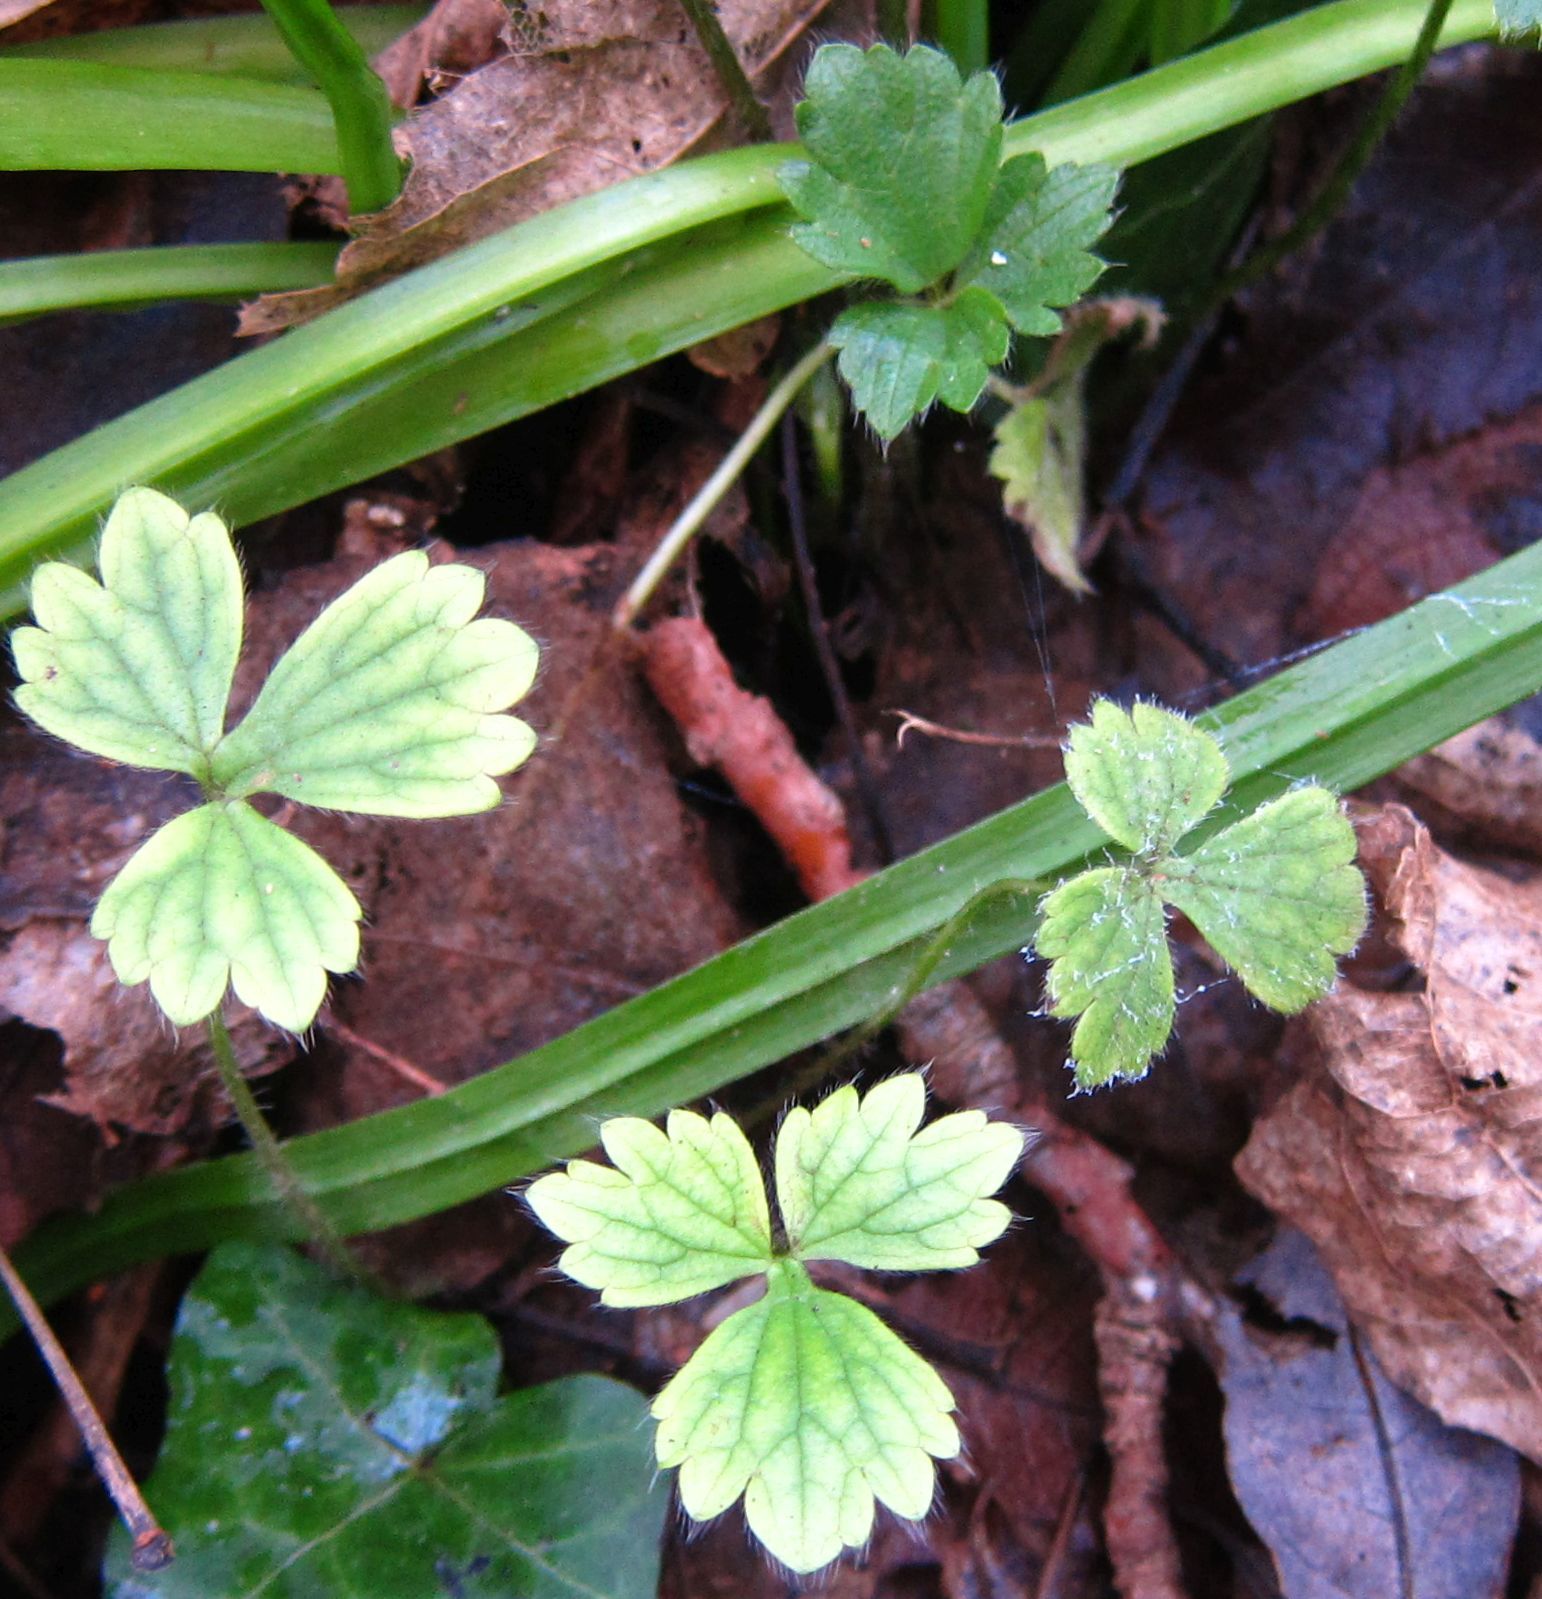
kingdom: Plantae
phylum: Tracheophyta
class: Magnoliopsida
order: Ranunculales
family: Ranunculaceae
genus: Ranunculus
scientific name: Ranunculus repens
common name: Creeping buttercup
